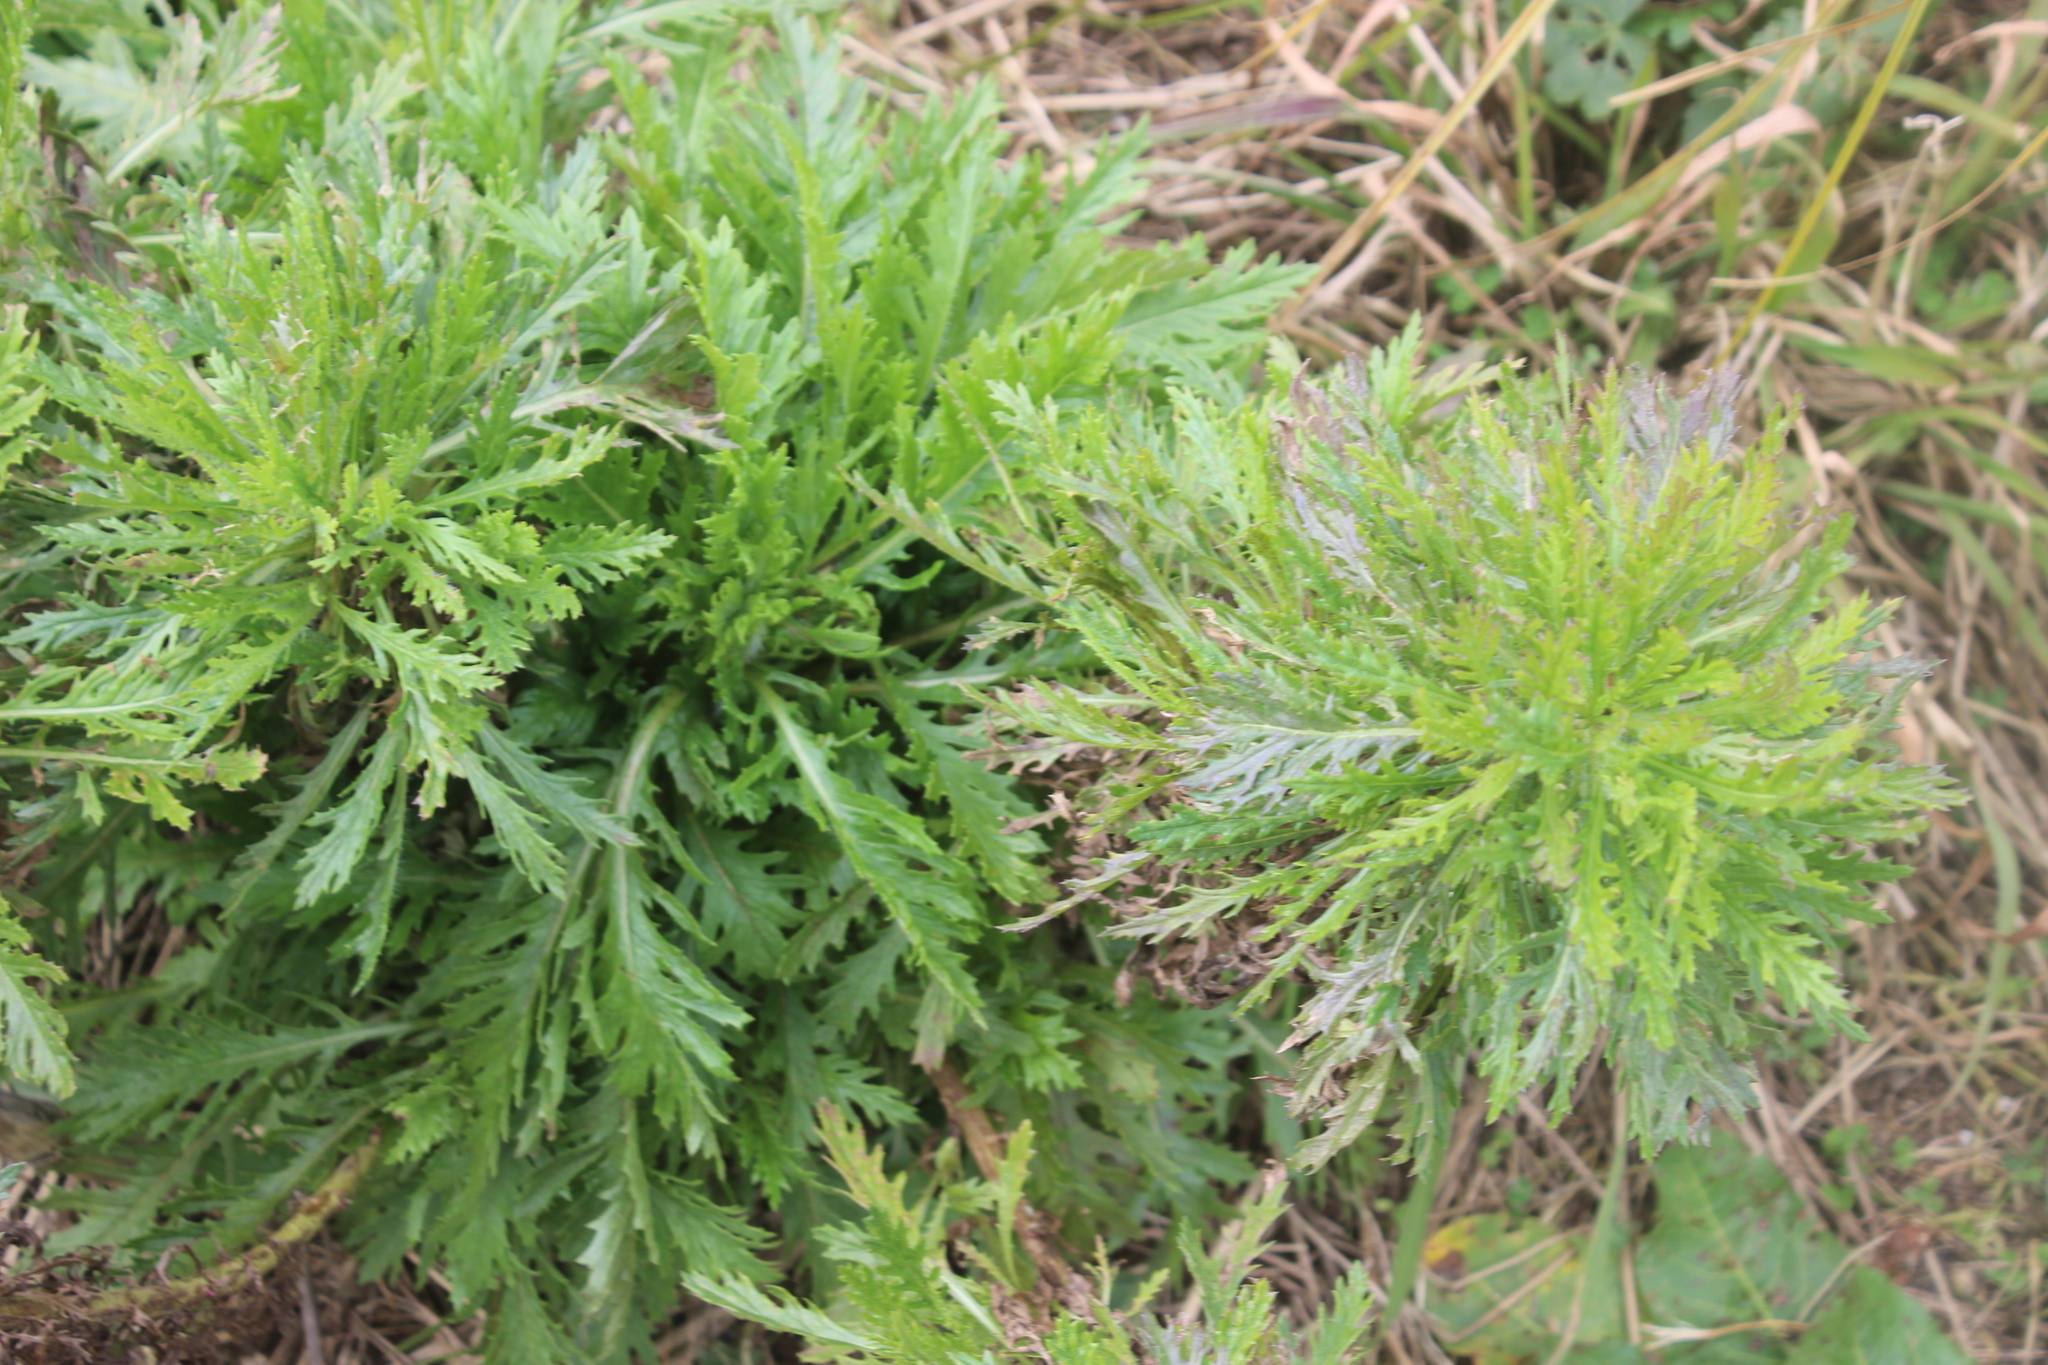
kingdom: Plantae
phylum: Tracheophyta
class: Magnoliopsida
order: Asterales
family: Asteraceae
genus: Senecio
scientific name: Senecio esleri
